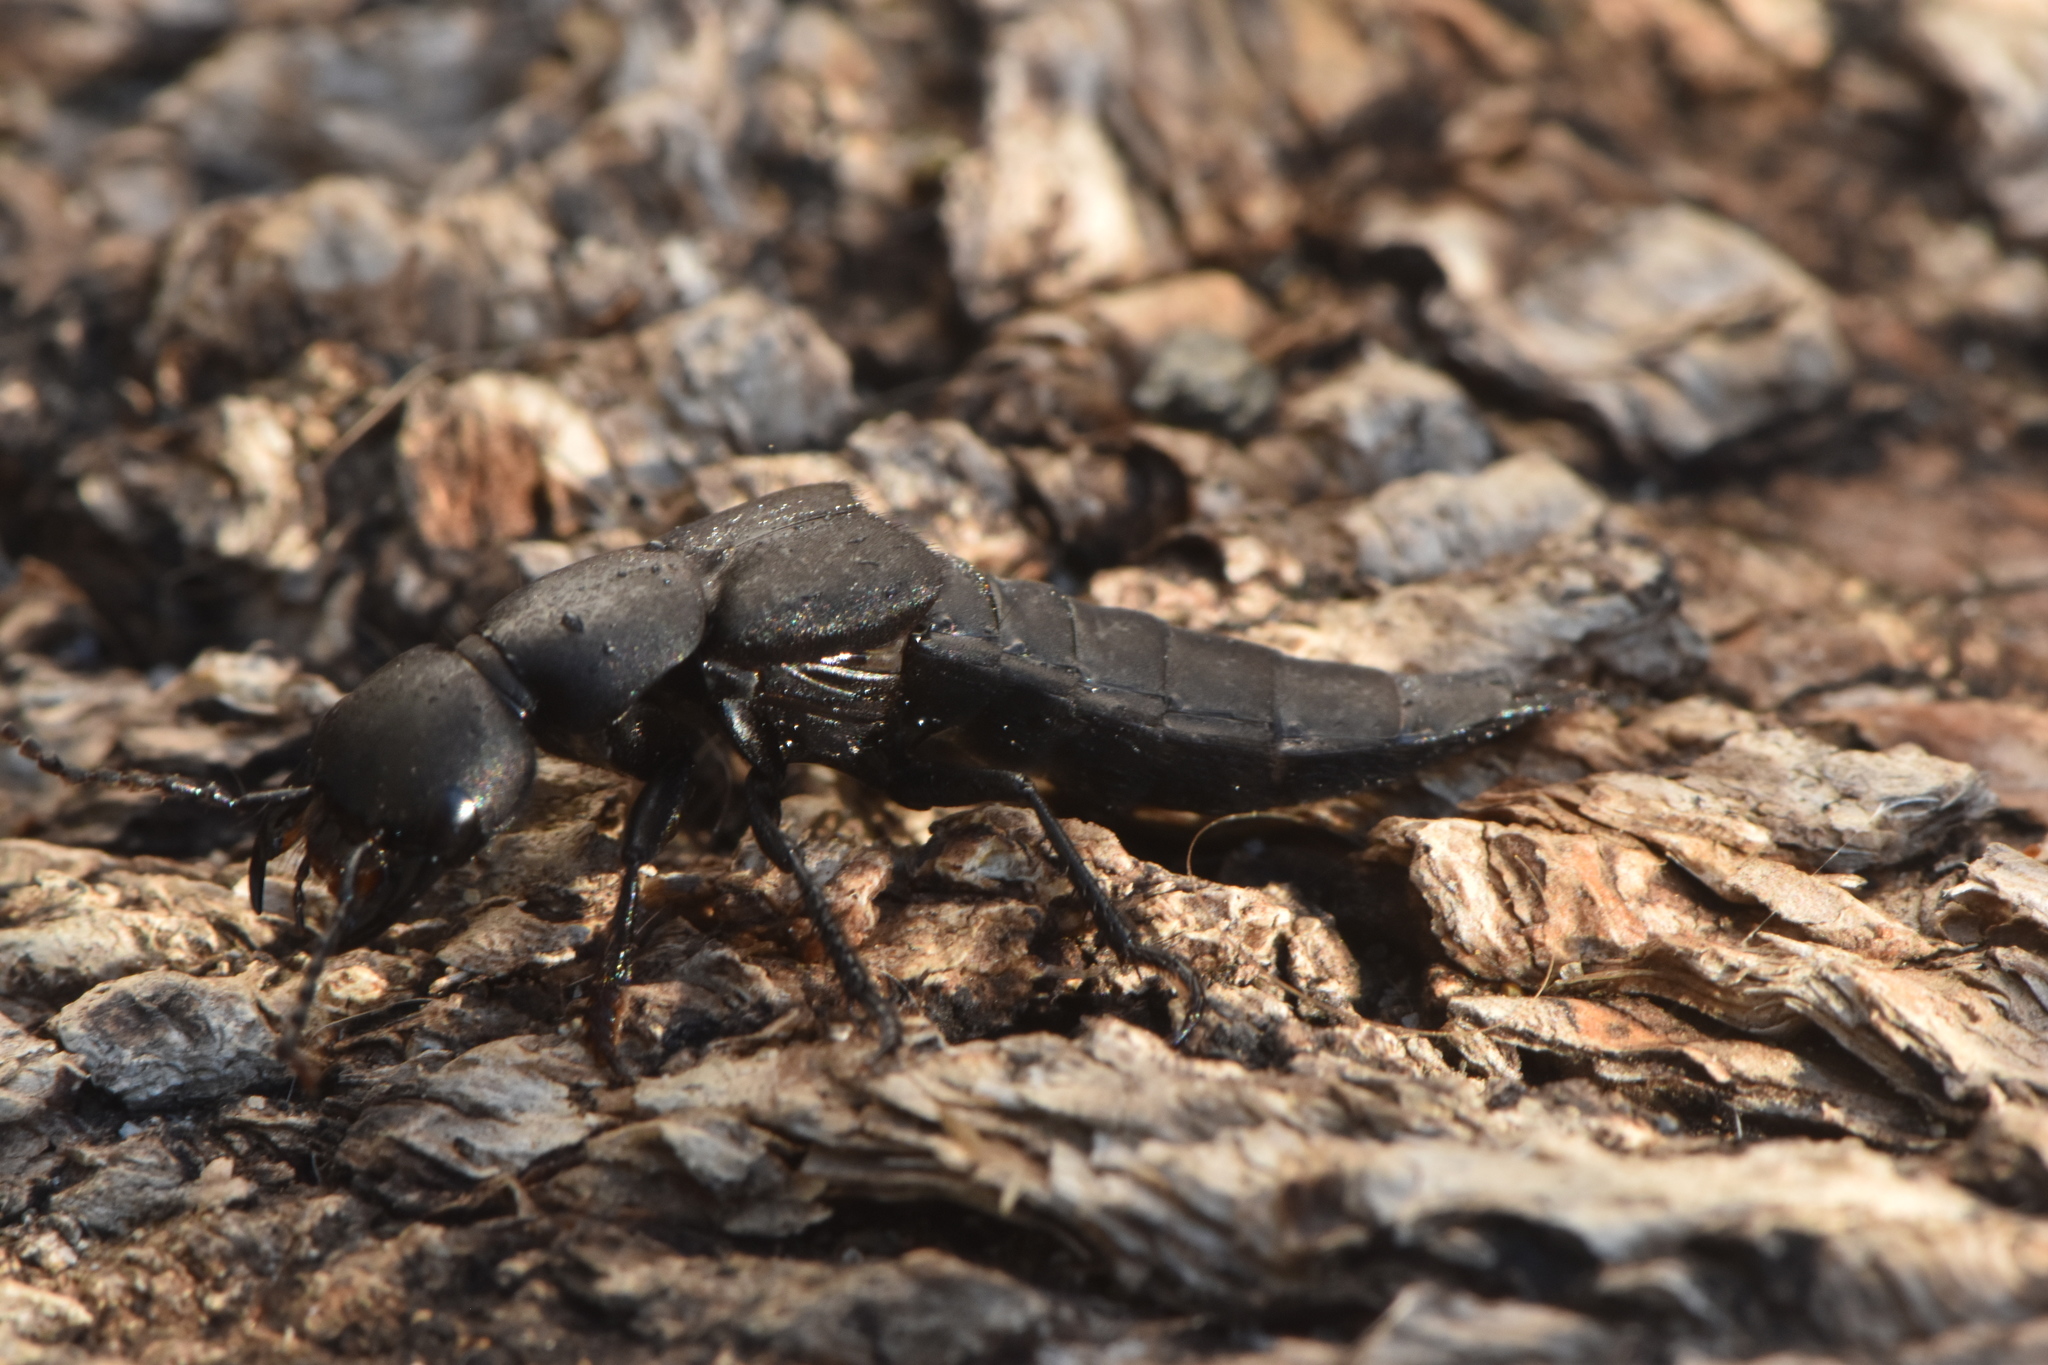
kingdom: Animalia
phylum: Arthropoda
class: Insecta
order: Coleoptera
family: Staphylinidae
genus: Ocypus
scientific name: Ocypus olens
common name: Devil's coach-horse
